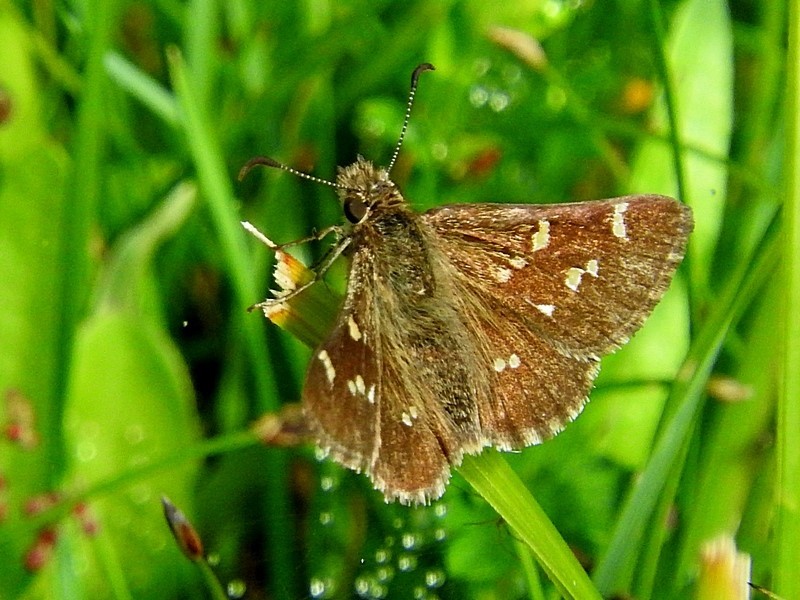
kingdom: Animalia
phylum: Arthropoda
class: Insecta
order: Lepidoptera
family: Hesperiidae
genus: Pasma
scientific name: Pasma tasmanicus
